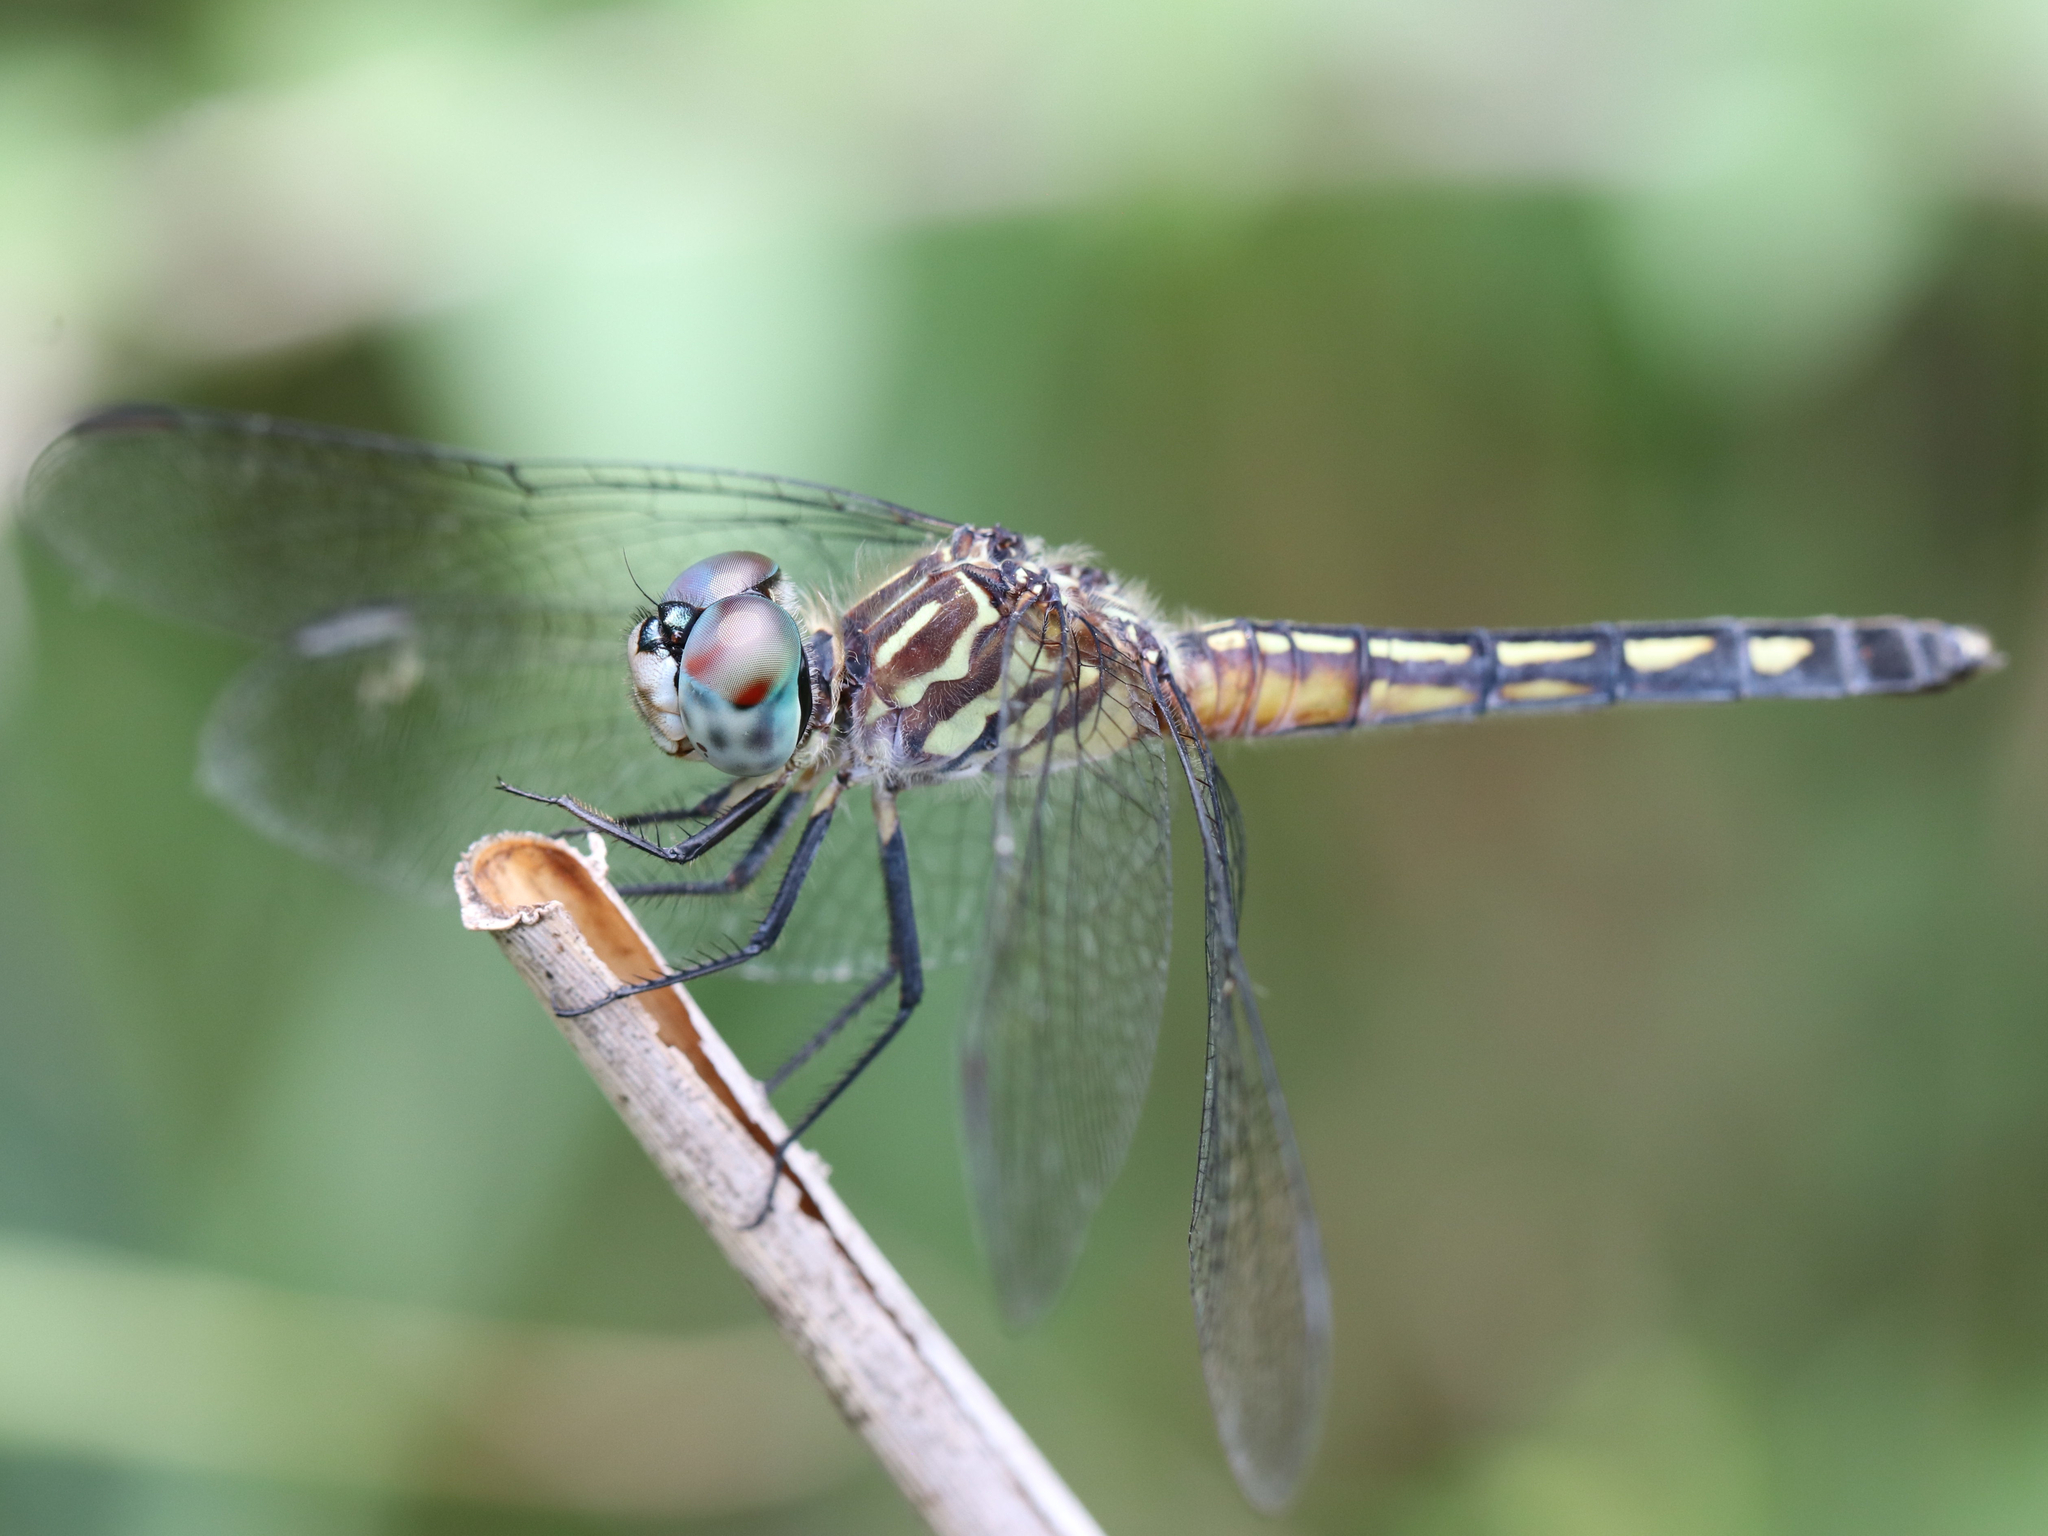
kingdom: Animalia
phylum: Arthropoda
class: Insecta
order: Odonata
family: Libellulidae
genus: Pachydiplax
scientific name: Pachydiplax longipennis
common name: Blue dasher
